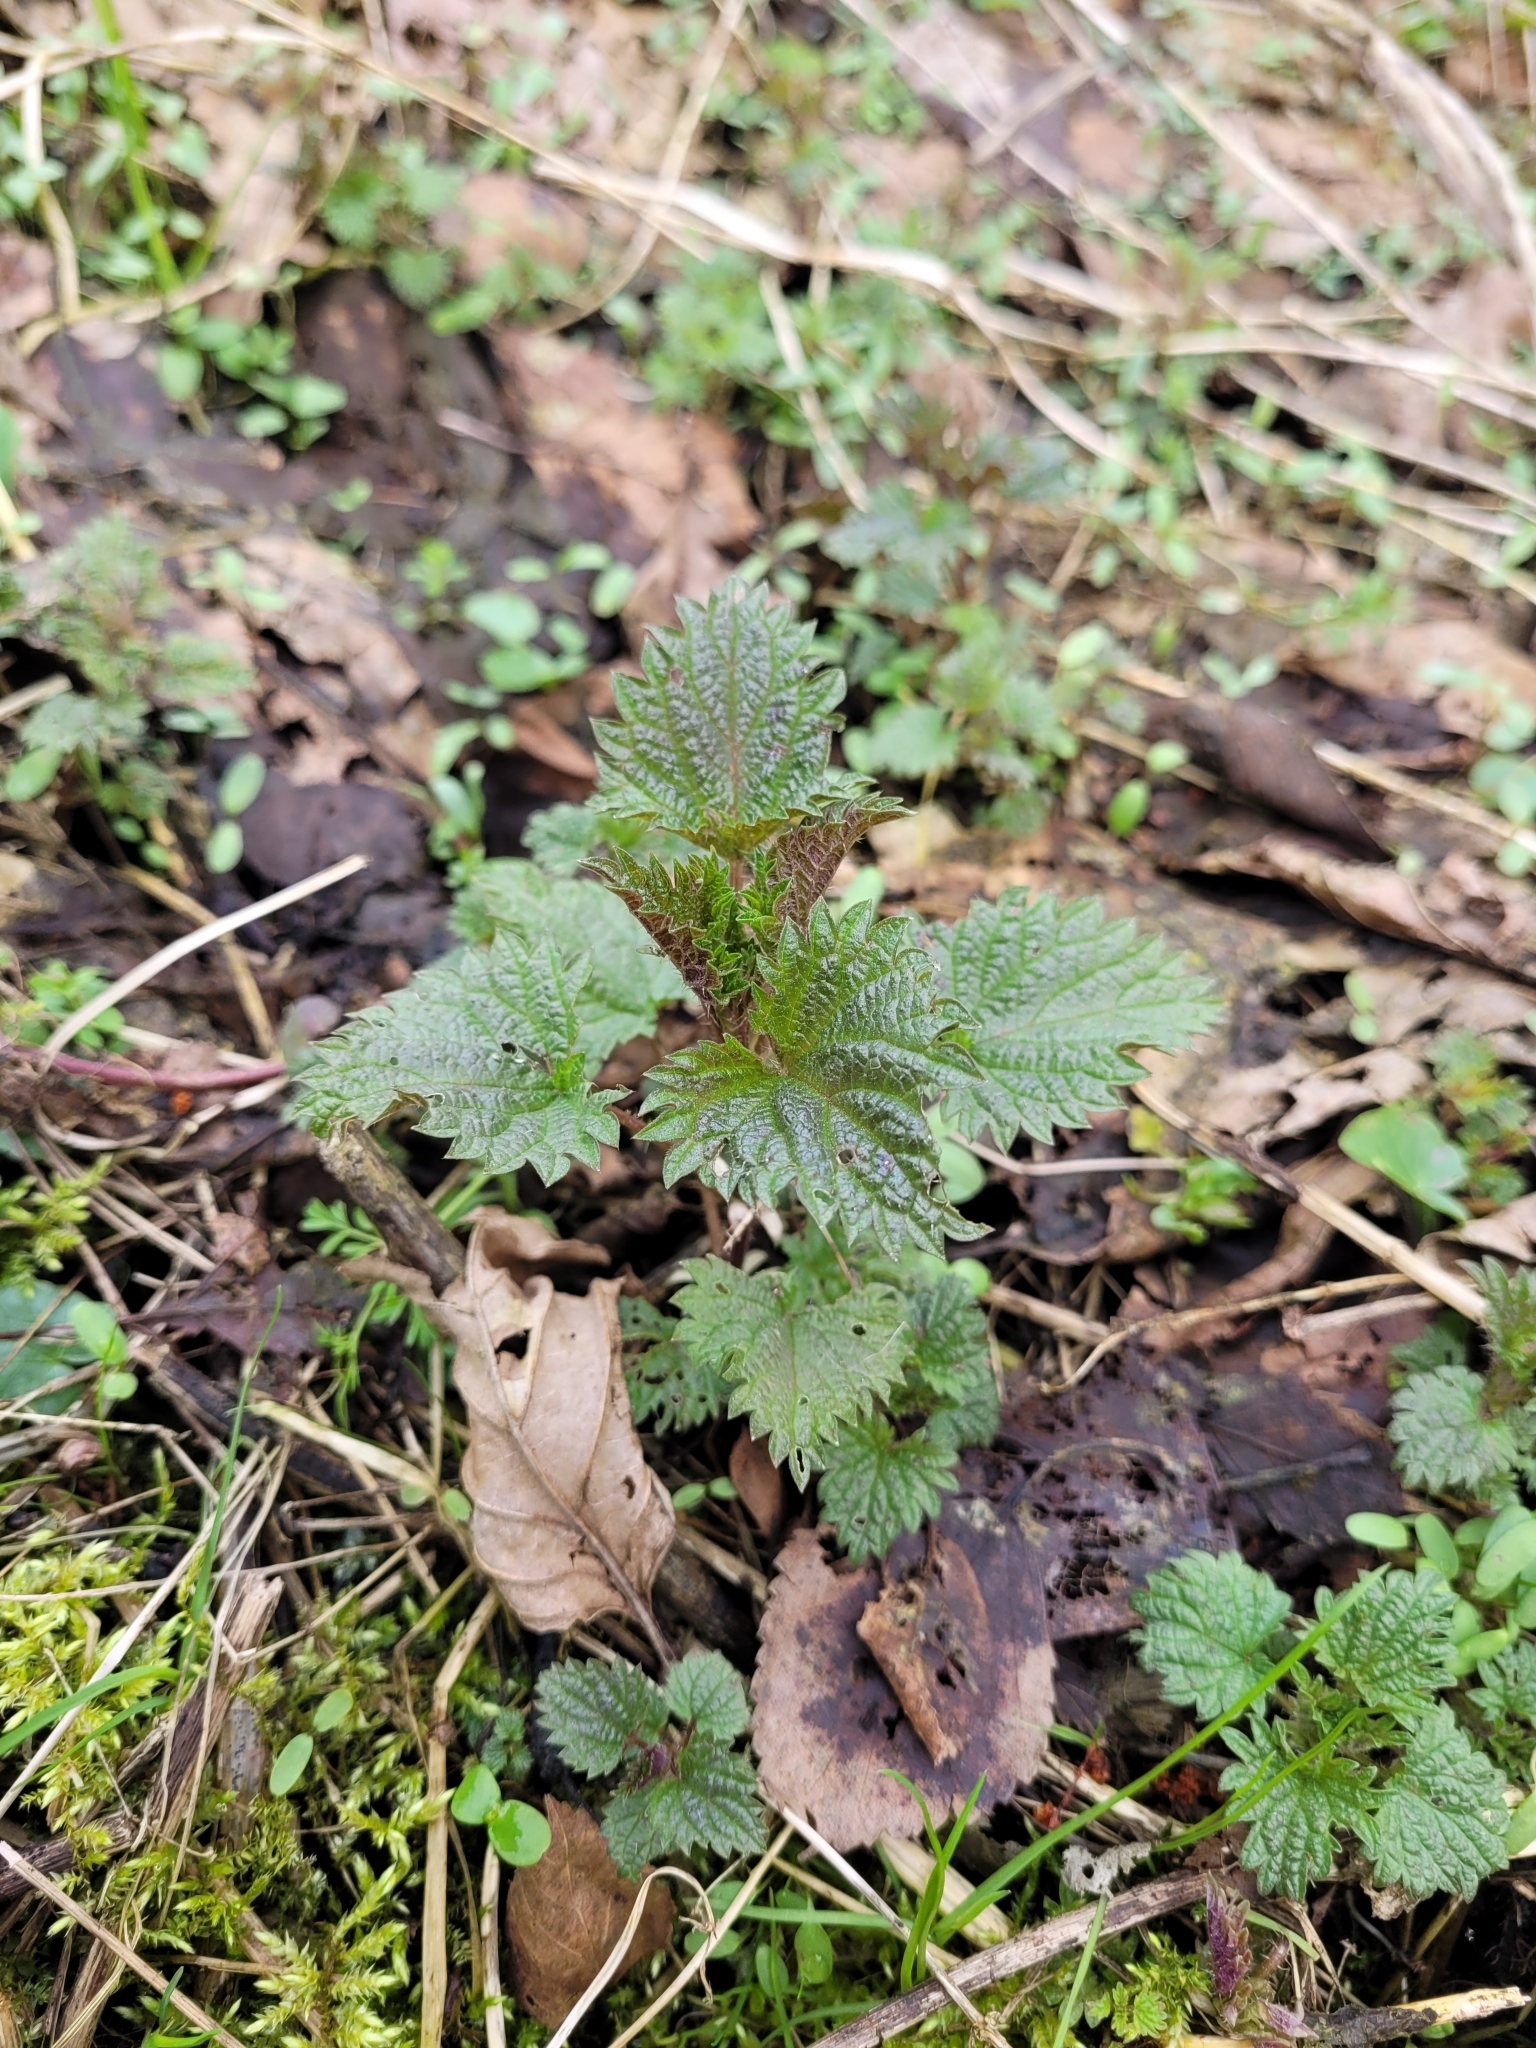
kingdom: Plantae
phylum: Tracheophyta
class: Magnoliopsida
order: Rosales
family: Urticaceae
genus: Urtica
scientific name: Urtica dioica
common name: Common nettle
